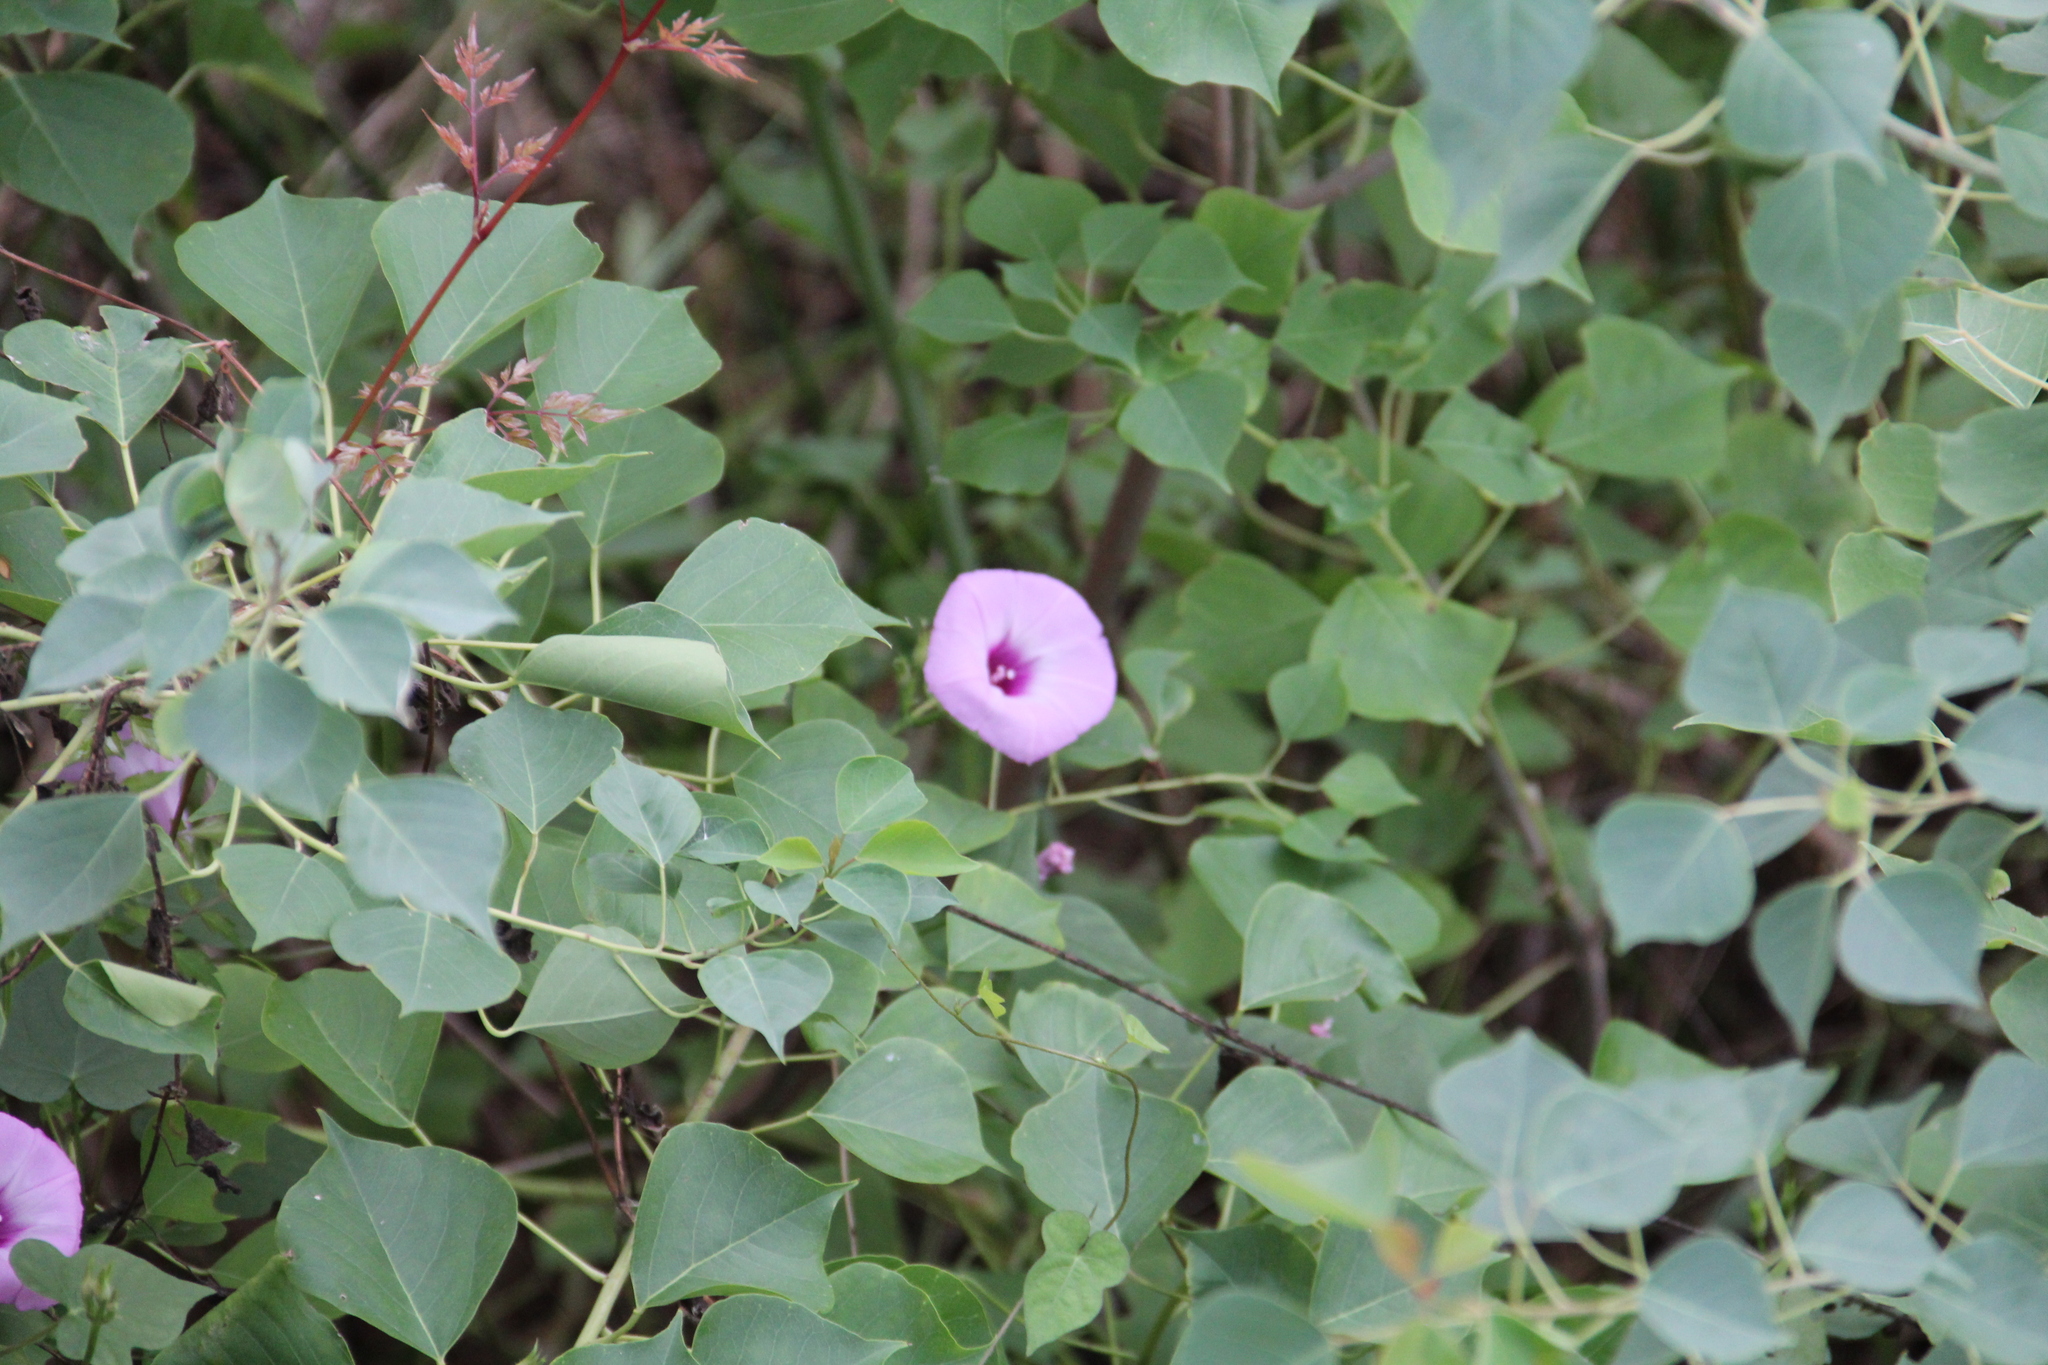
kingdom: Plantae
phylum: Tracheophyta
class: Magnoliopsida
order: Solanales
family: Convolvulaceae
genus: Ipomoea
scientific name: Ipomoea cordatotriloba
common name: Cotton morning glory
